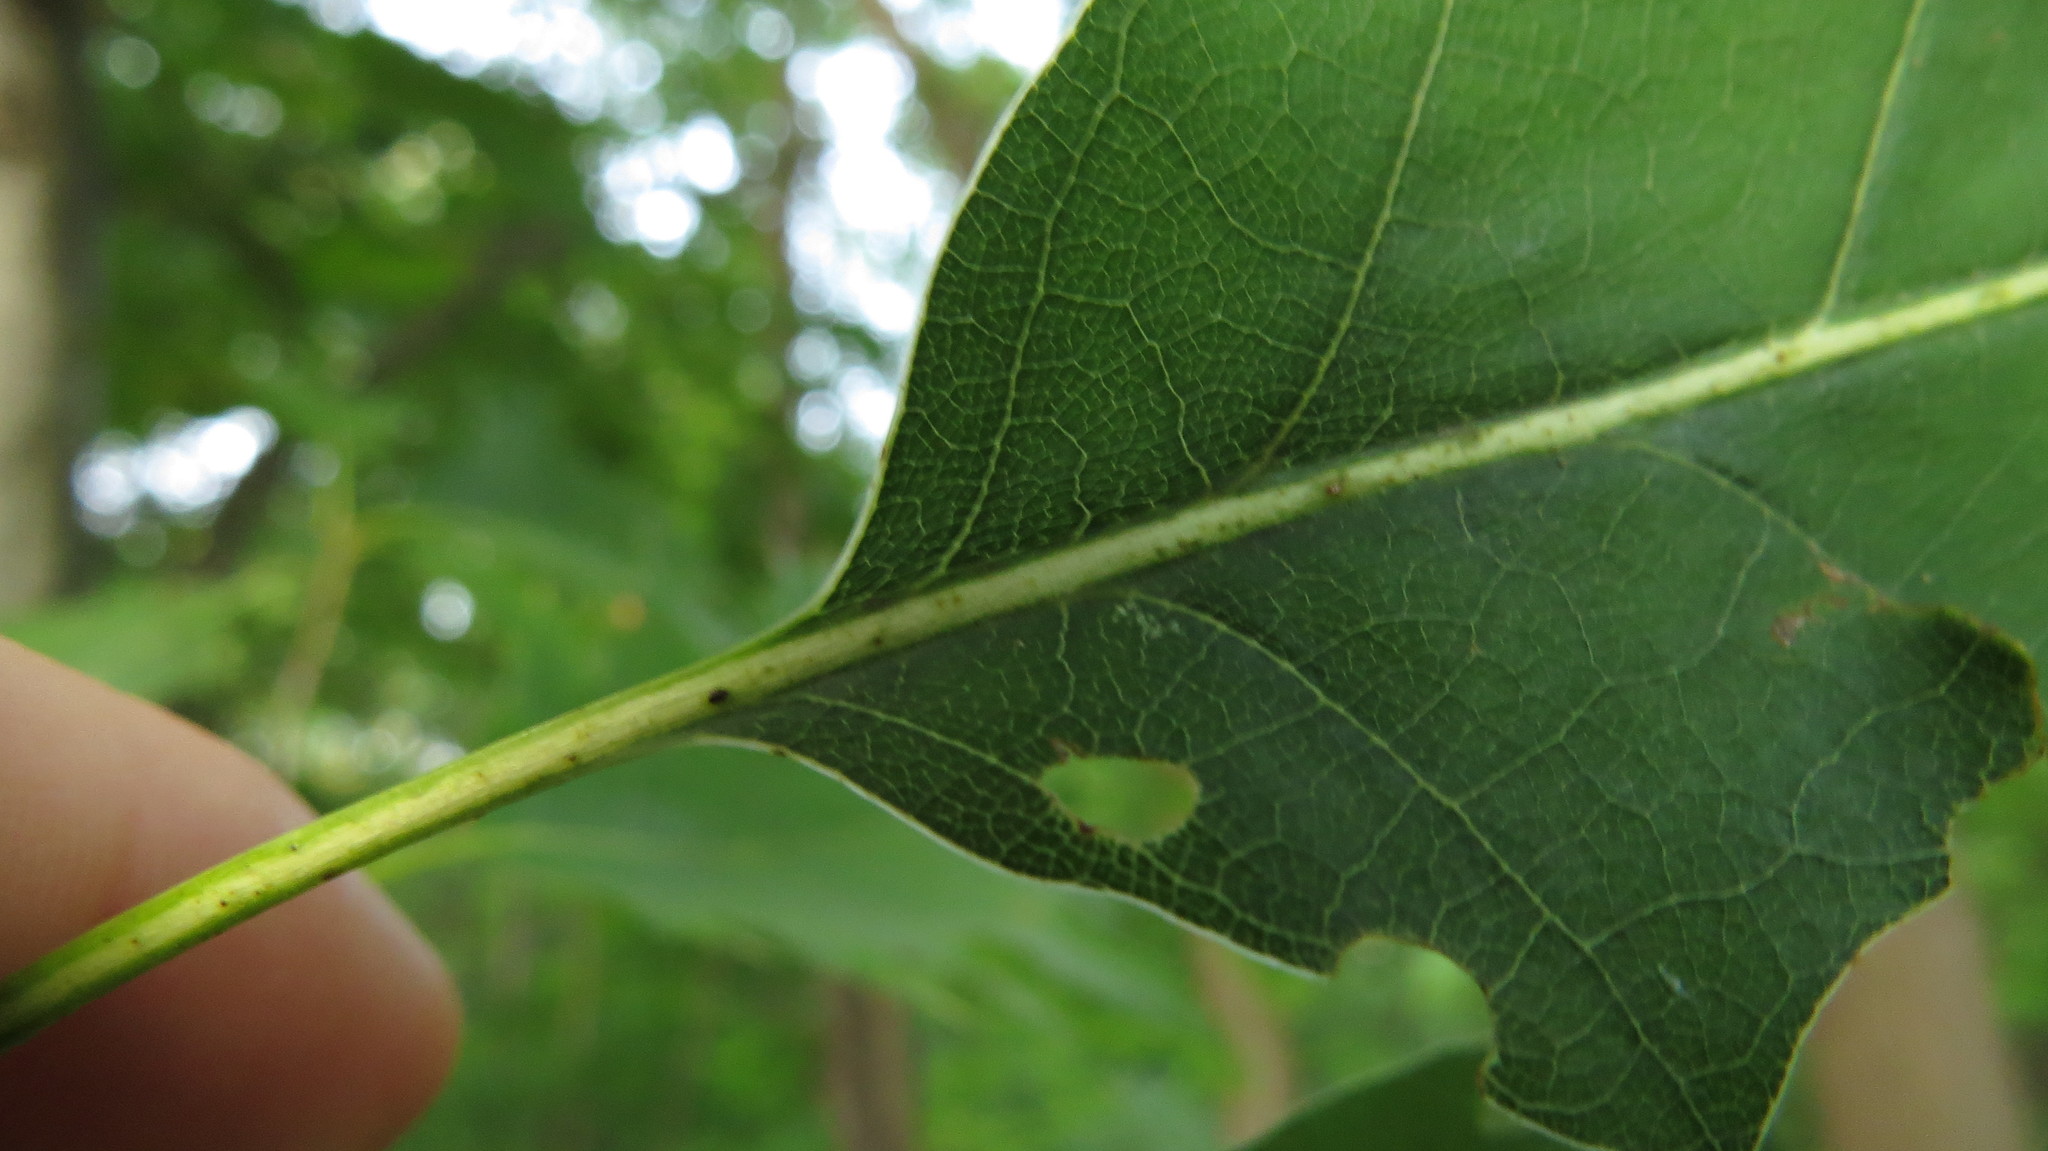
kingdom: Plantae
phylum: Tracheophyta
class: Magnoliopsida
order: Fagales
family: Fagaceae
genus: Quercus
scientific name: Quercus rubra
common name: Red oak
